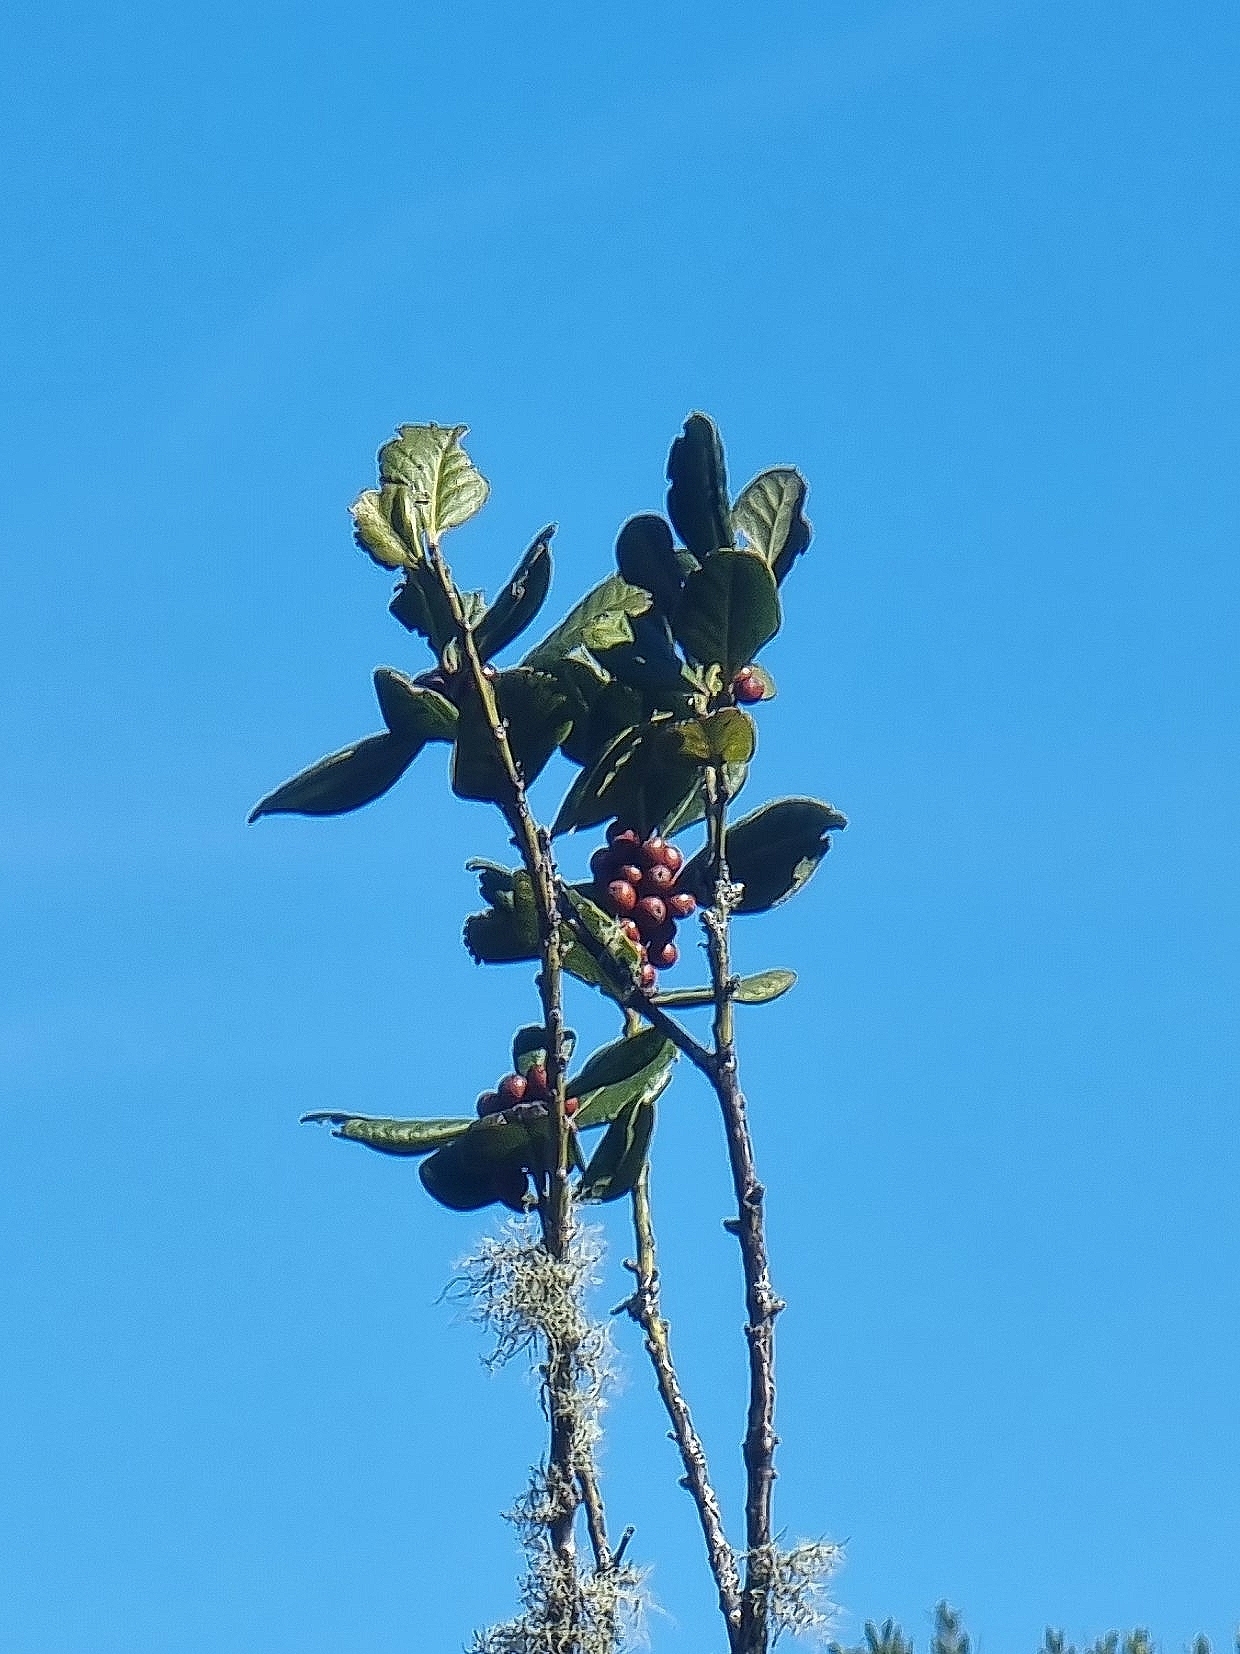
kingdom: Plantae
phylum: Tracheophyta
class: Magnoliopsida
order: Aquifoliales
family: Aquifoliaceae
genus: Ilex
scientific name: Ilex perado
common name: Madeira holly
